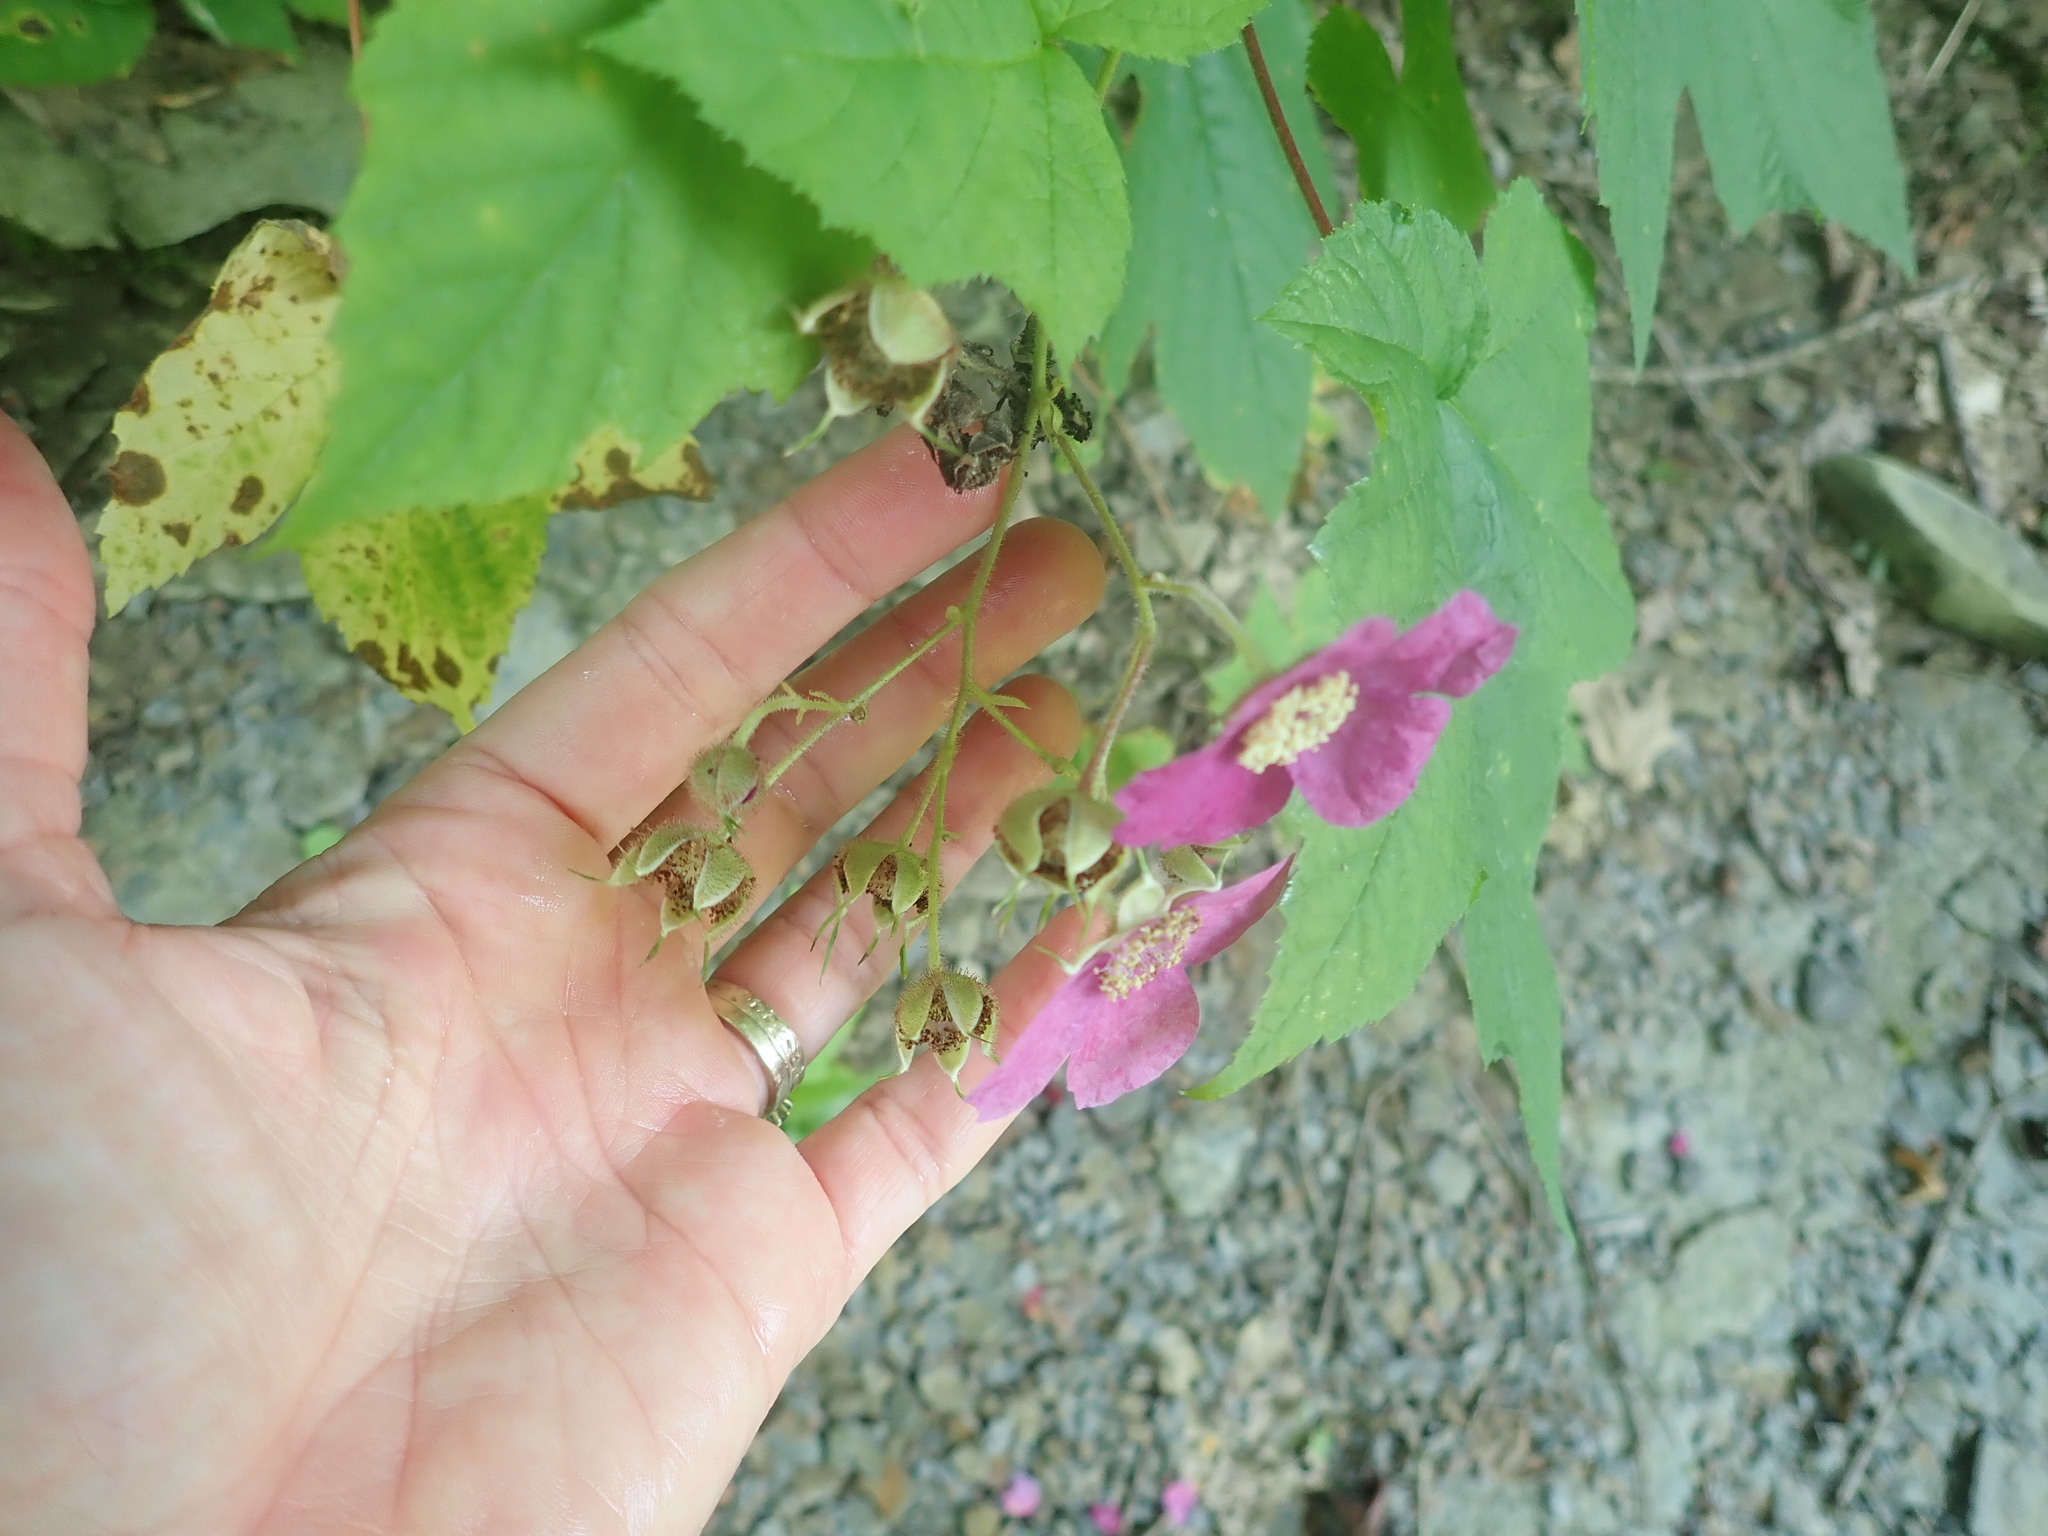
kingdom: Plantae
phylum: Tracheophyta
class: Magnoliopsida
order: Rosales
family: Rosaceae
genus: Rubus
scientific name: Rubus odoratus
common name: Purple-flowered raspberry
